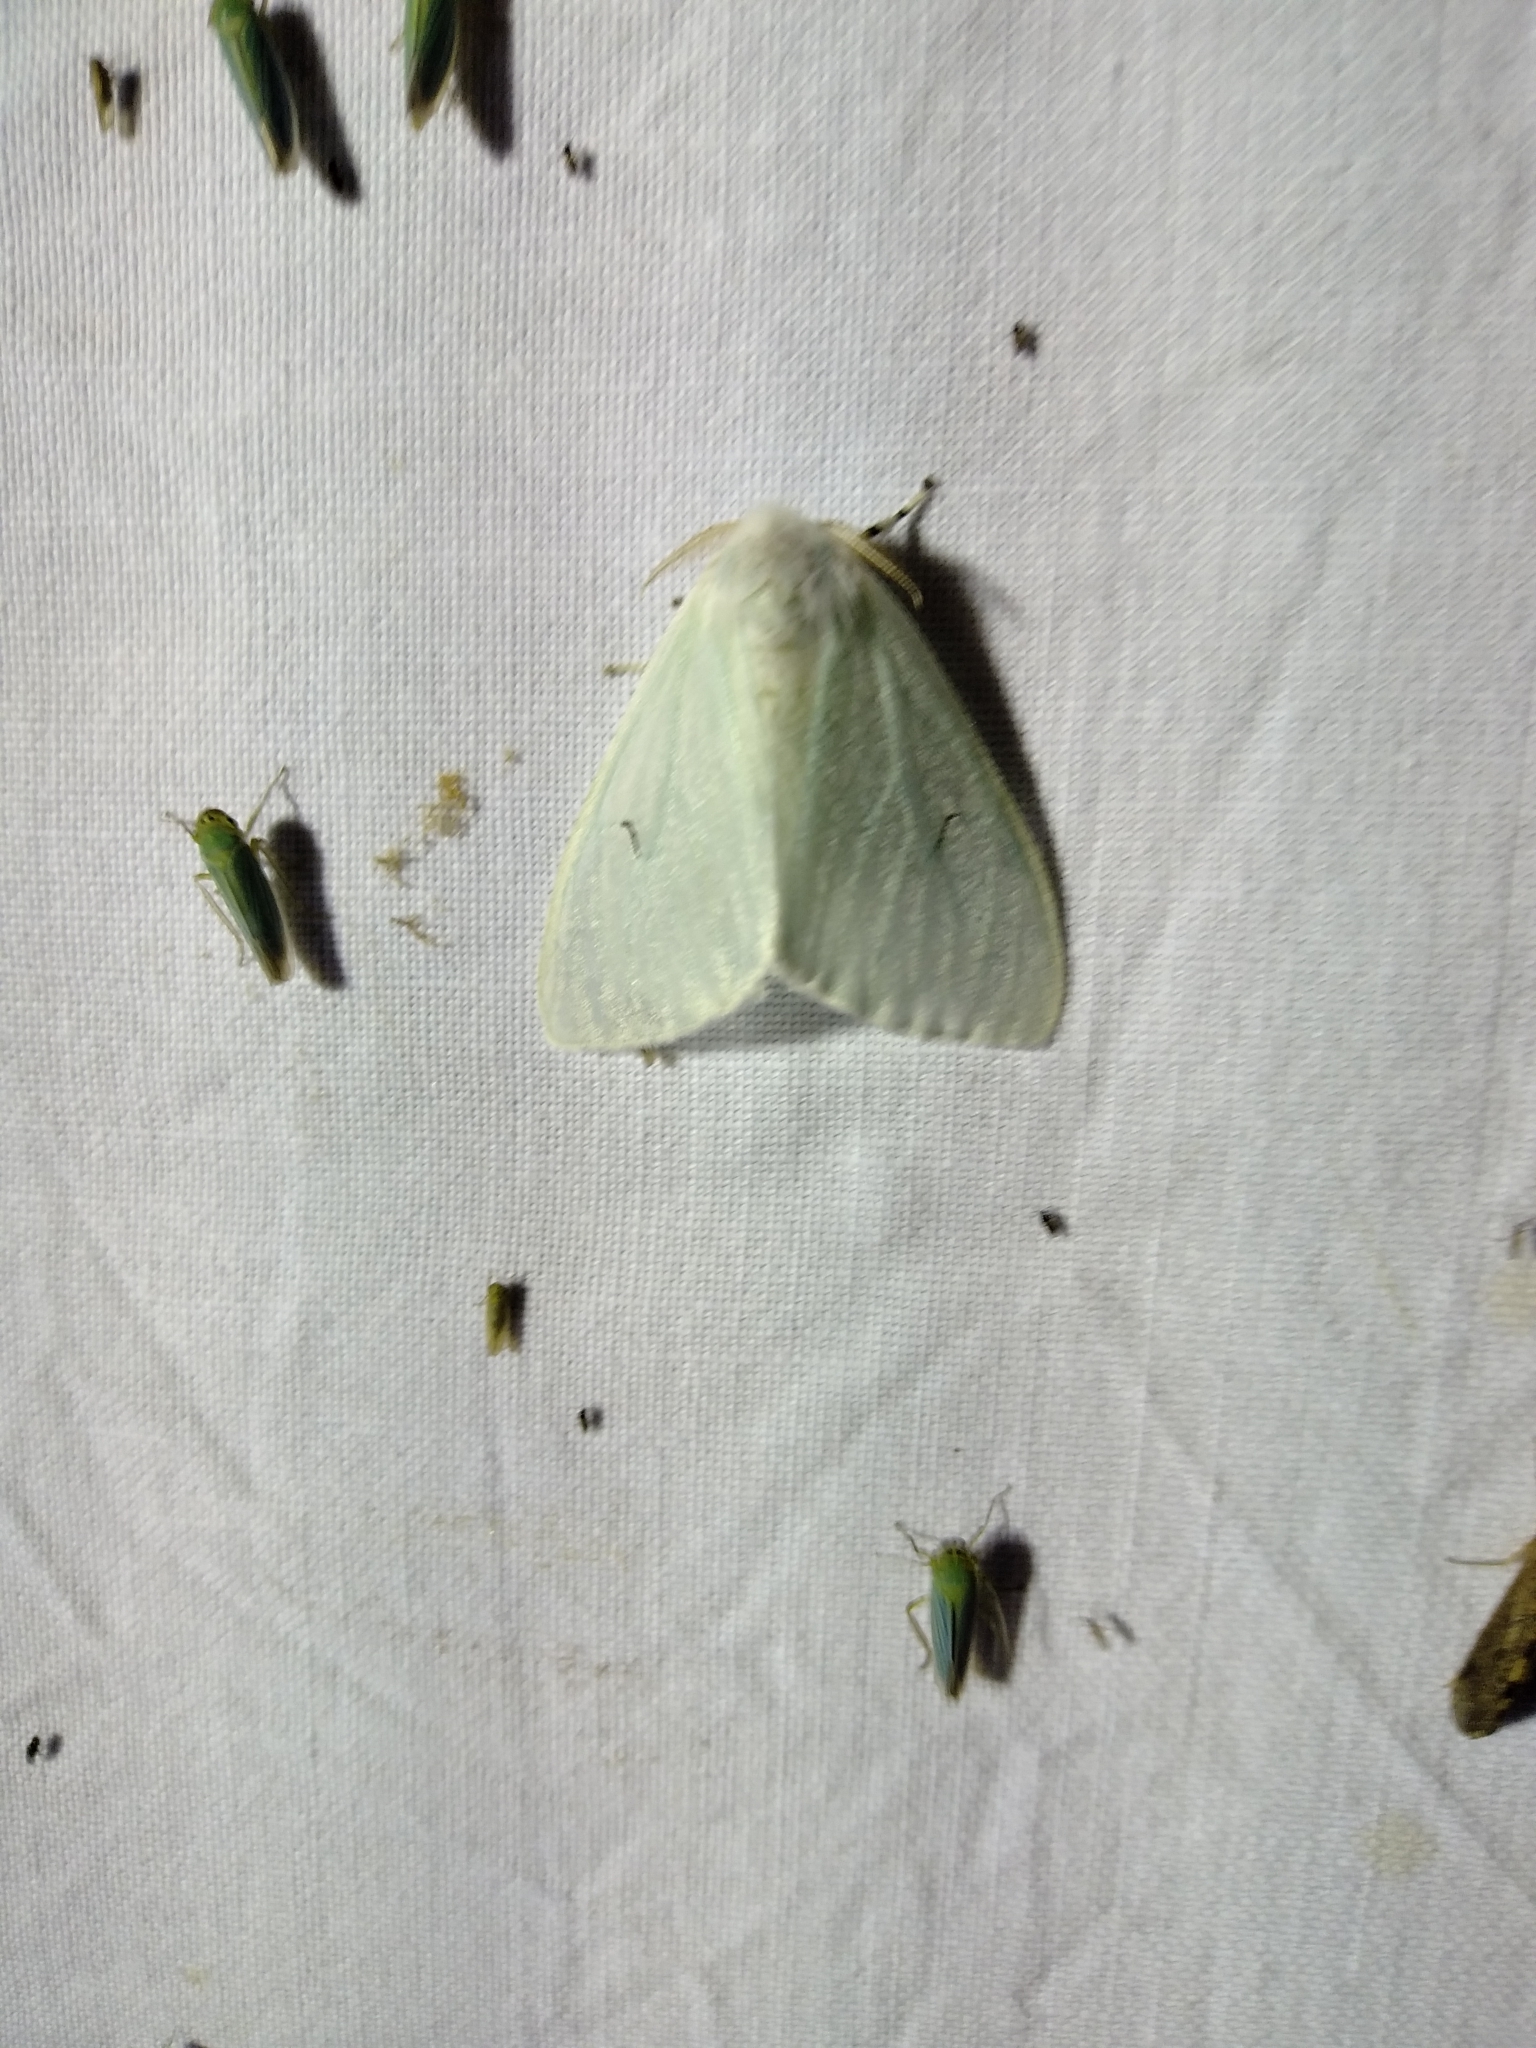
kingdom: Animalia
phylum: Arthropoda
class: Insecta
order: Lepidoptera
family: Erebidae
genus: Arctornis
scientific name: Arctornis l-nigrum
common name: Black v moth
